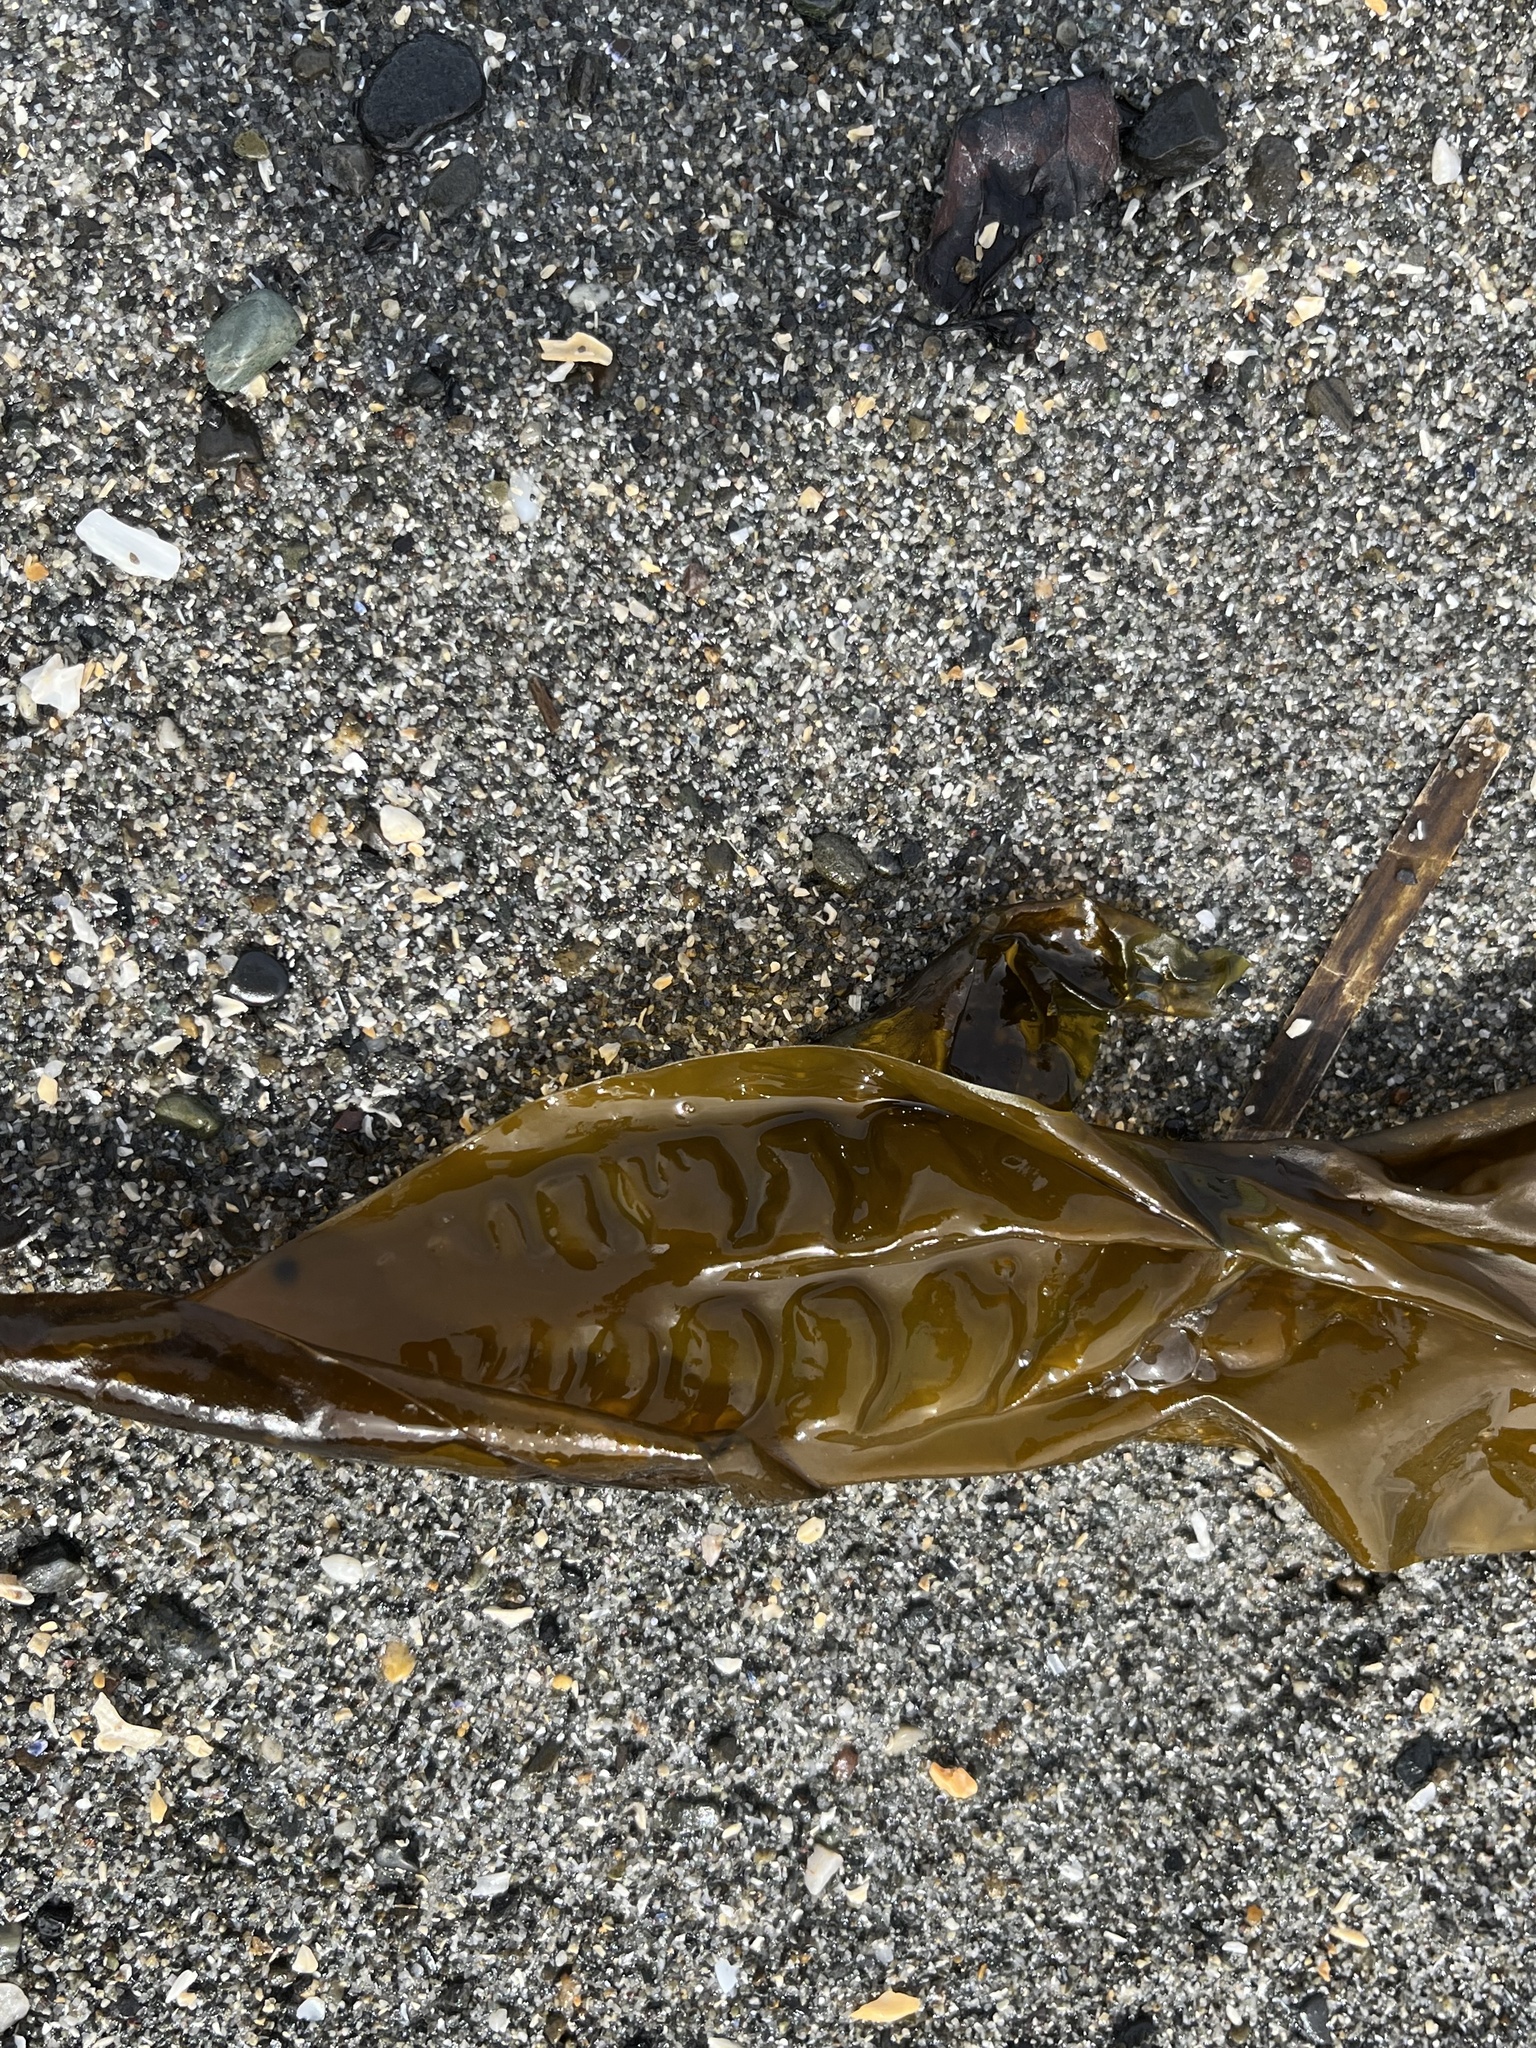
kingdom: Chromista
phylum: Ochrophyta
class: Phaeophyceae
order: Laminariales
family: Laminariaceae
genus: Saccharina
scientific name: Saccharina latissima
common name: Poor man's weather glass
